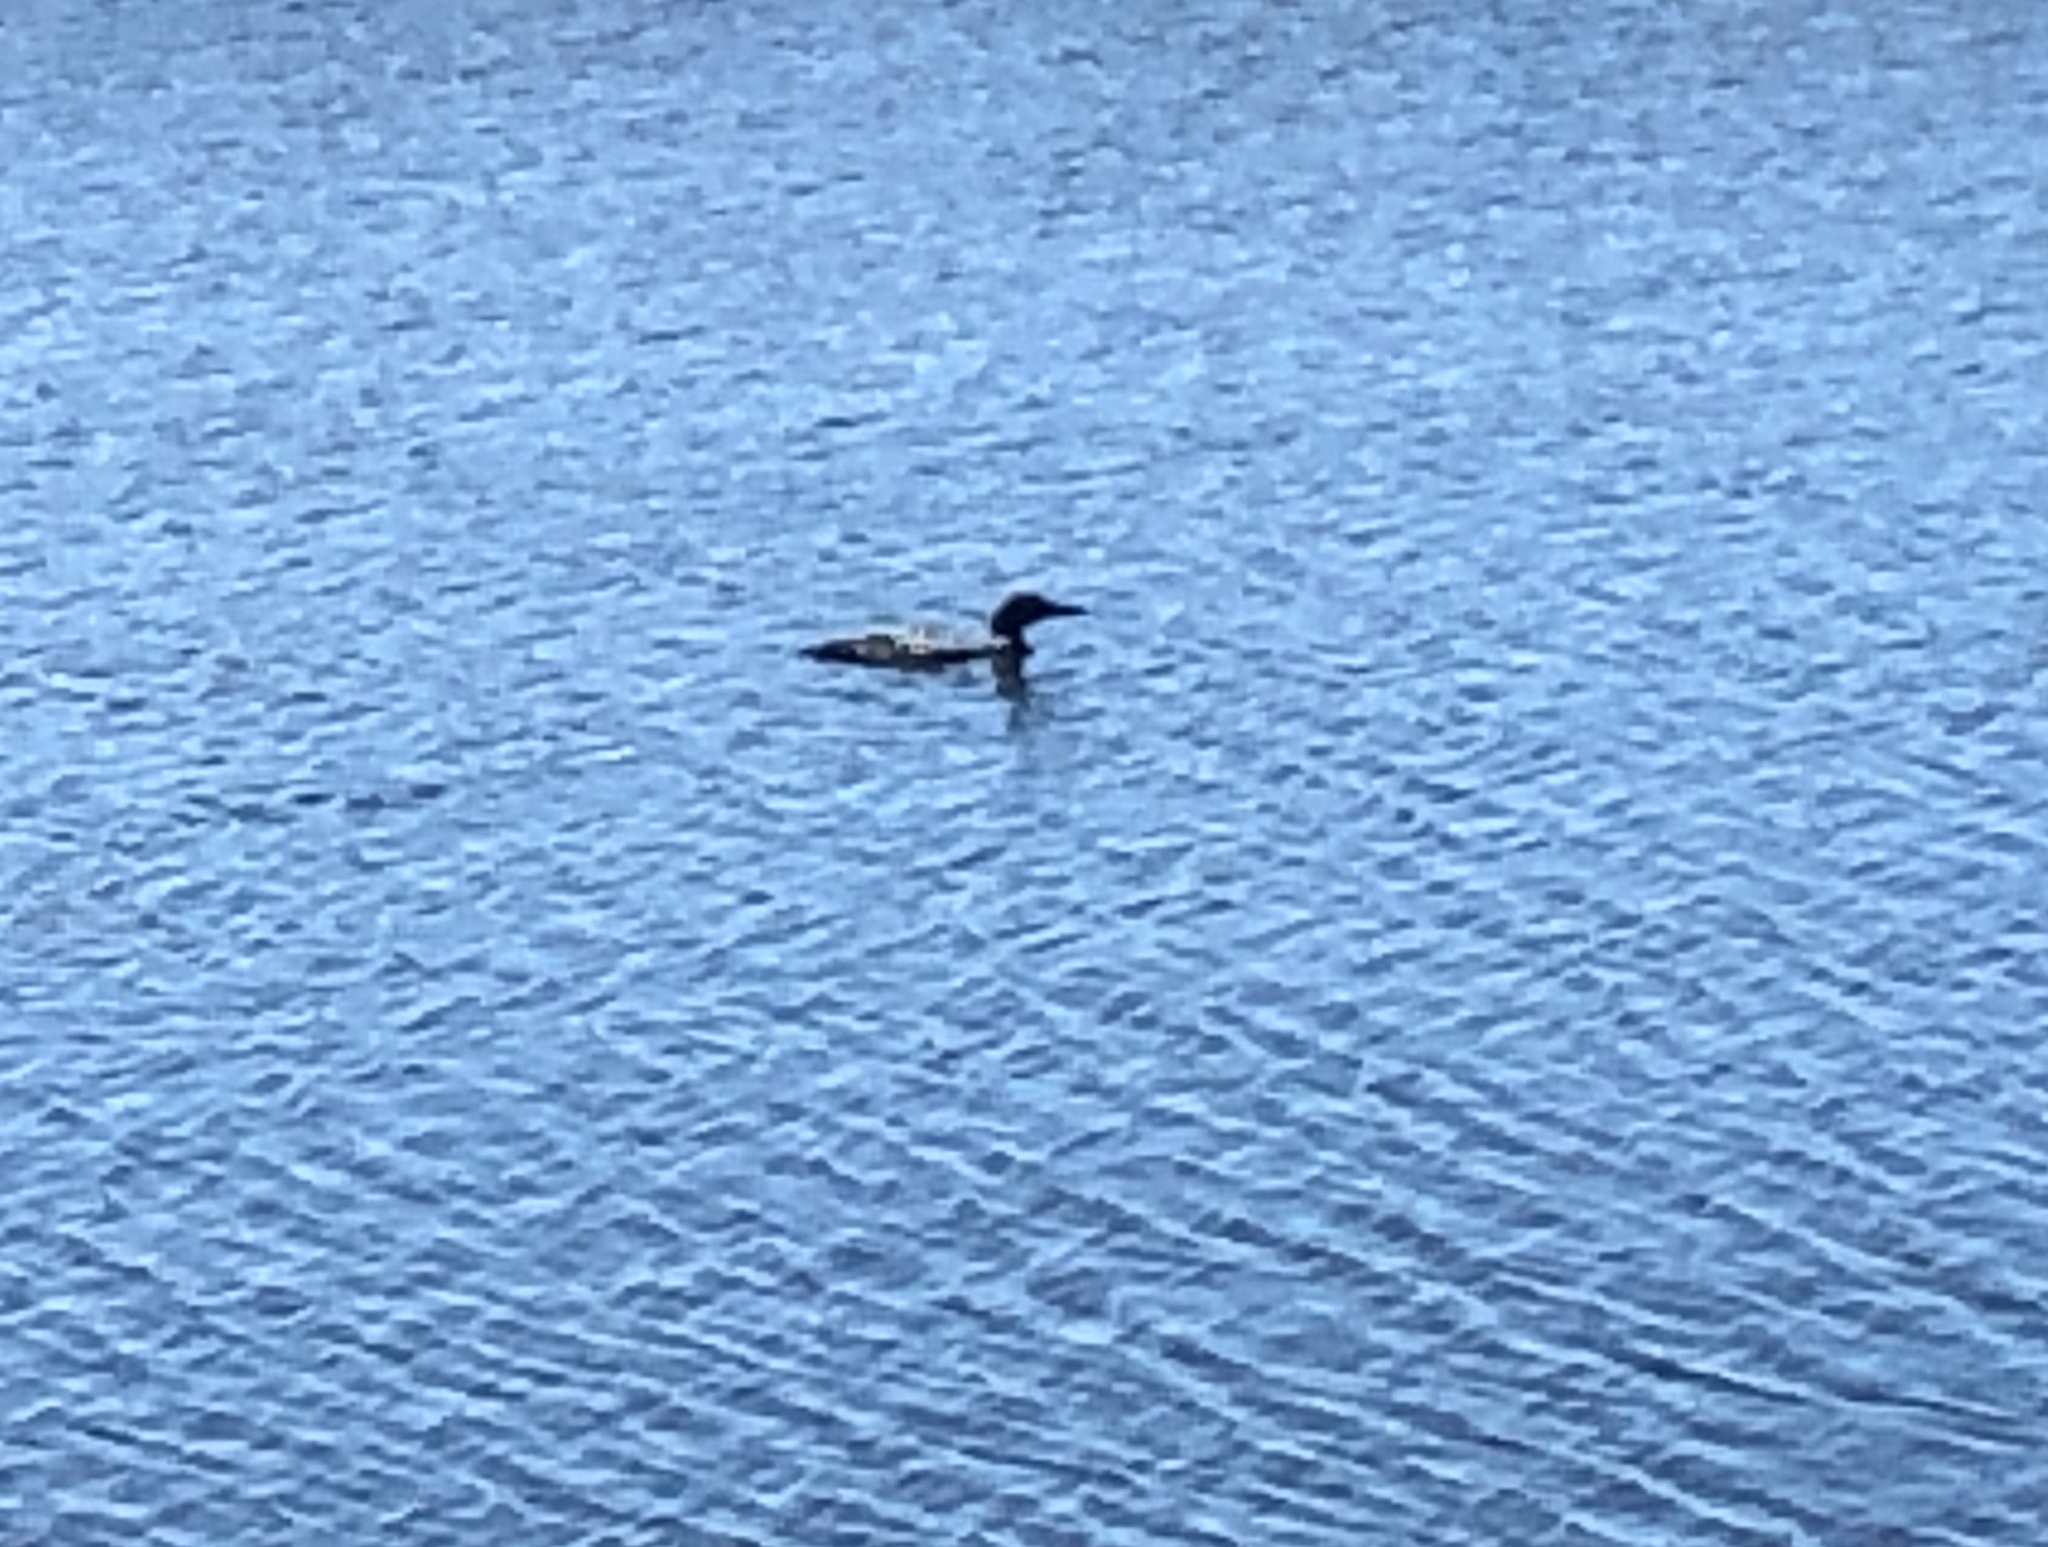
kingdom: Animalia
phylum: Chordata
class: Aves
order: Gaviiformes
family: Gaviidae
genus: Gavia
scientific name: Gavia immer
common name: Common loon
